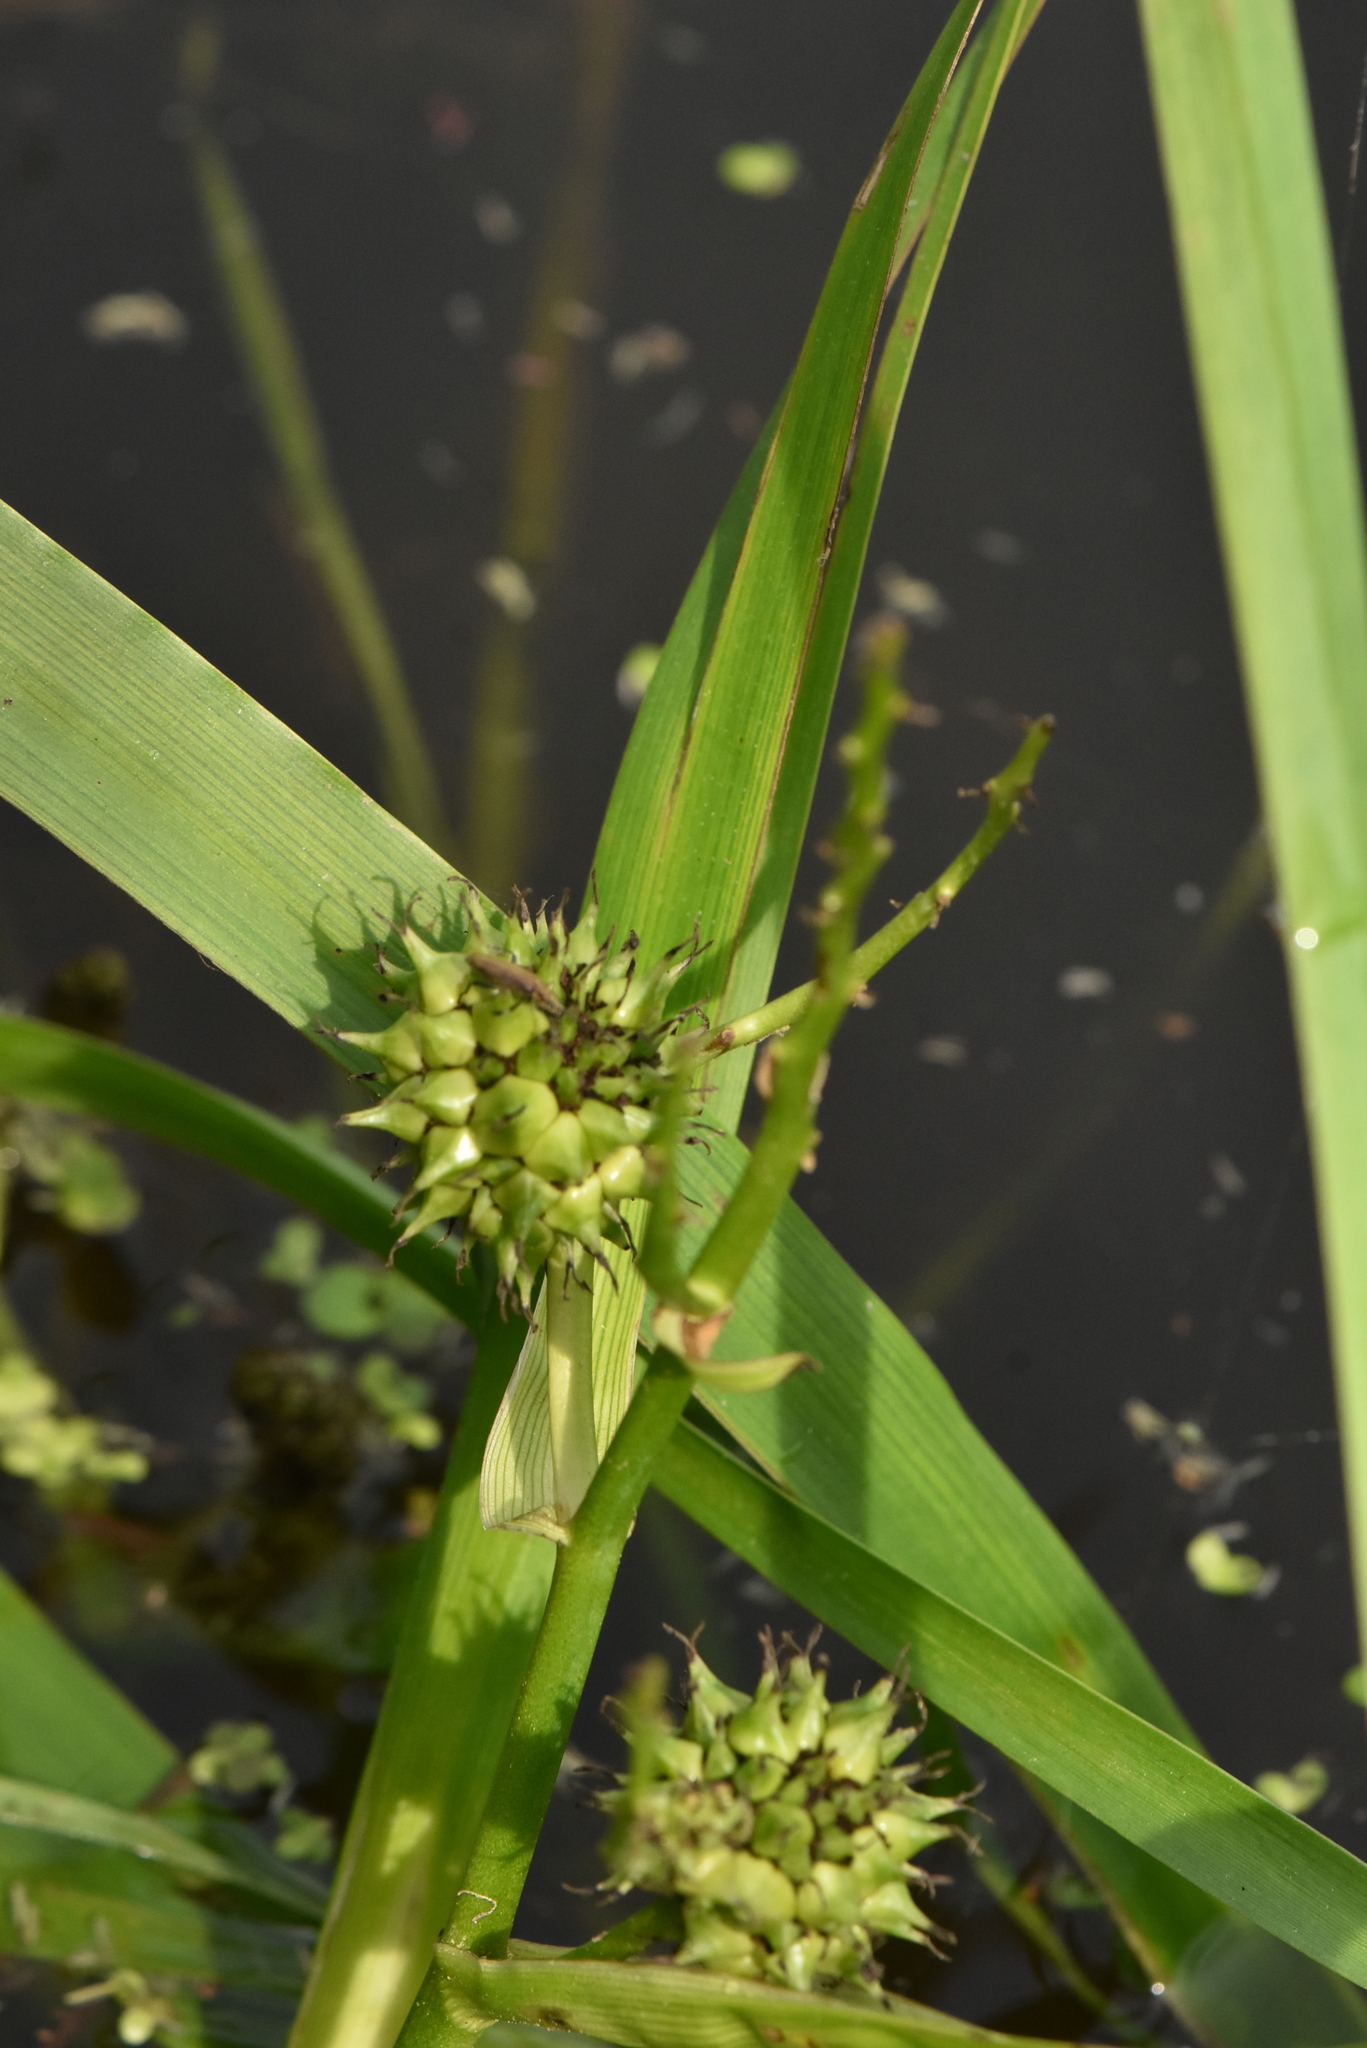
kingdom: Plantae
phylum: Tracheophyta
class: Liliopsida
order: Poales
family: Typhaceae
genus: Sparganium
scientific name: Sparganium erectum
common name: Branched bur-reed
